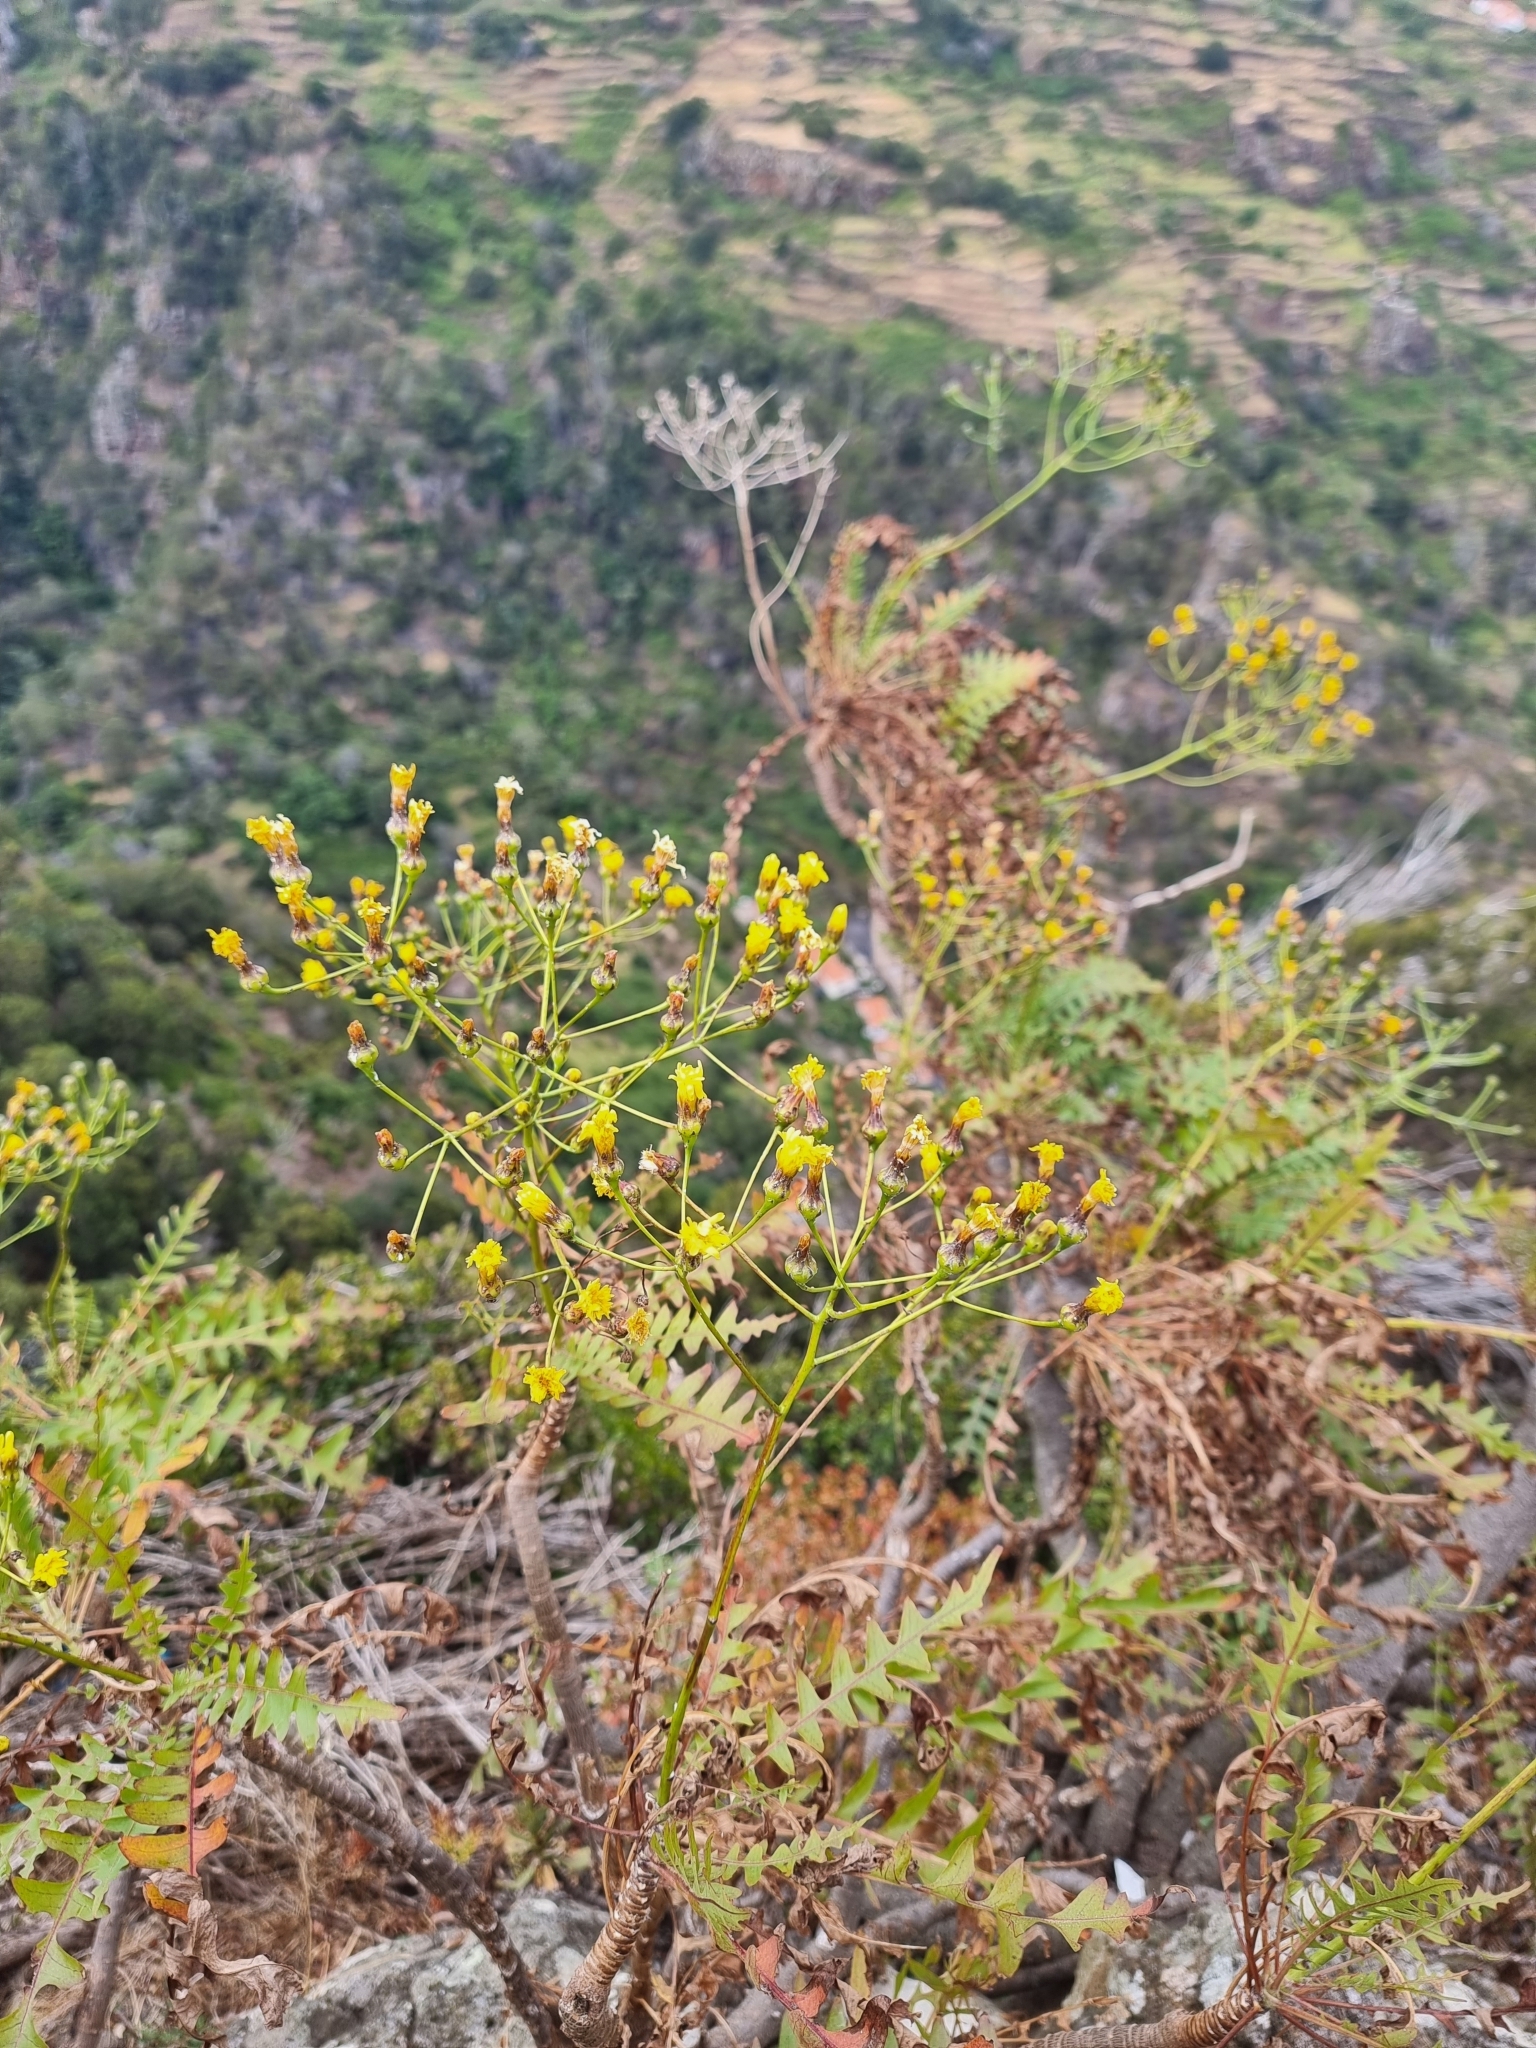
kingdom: Plantae
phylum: Tracheophyta
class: Magnoliopsida
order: Asterales
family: Asteraceae
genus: Sonchus
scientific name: Sonchus pinnatus
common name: Wing-leaved sow-thistle
